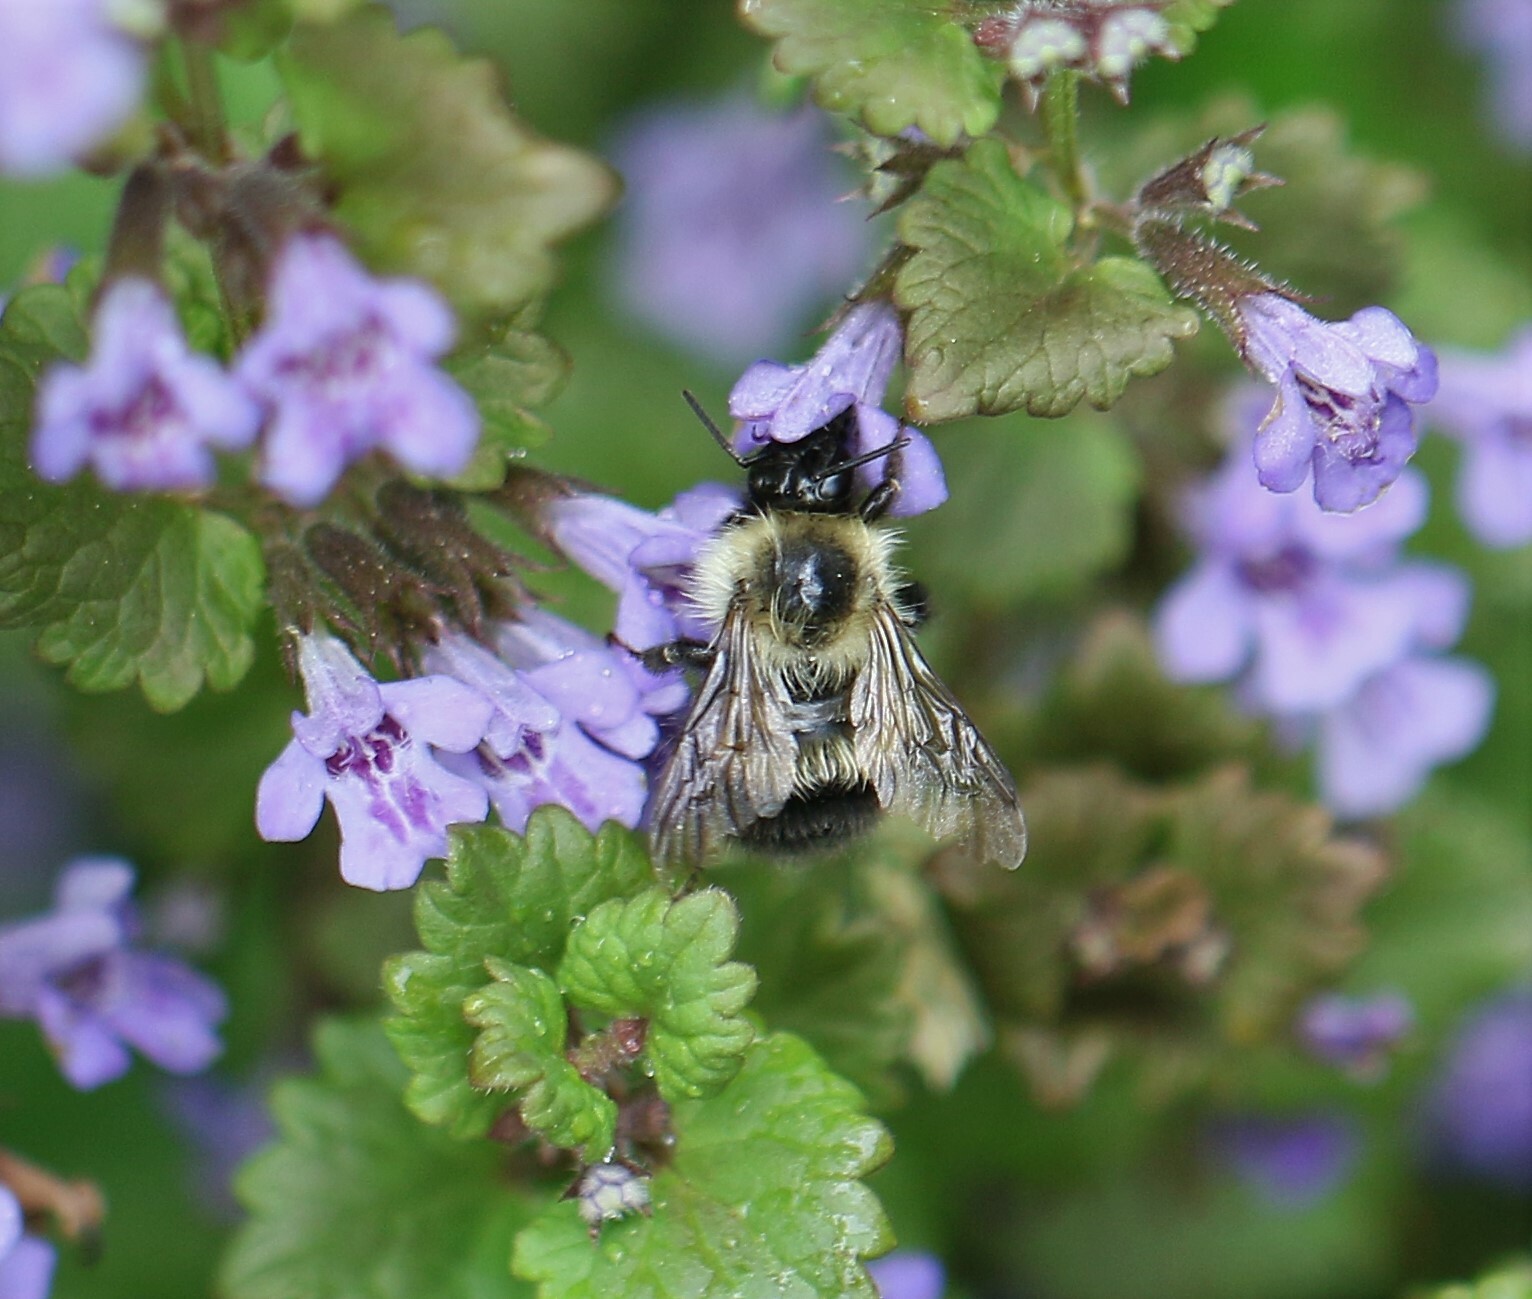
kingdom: Animalia
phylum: Arthropoda
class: Insecta
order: Hymenoptera
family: Apidae
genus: Bombus
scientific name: Bombus vagans
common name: Half-black bumble bee
